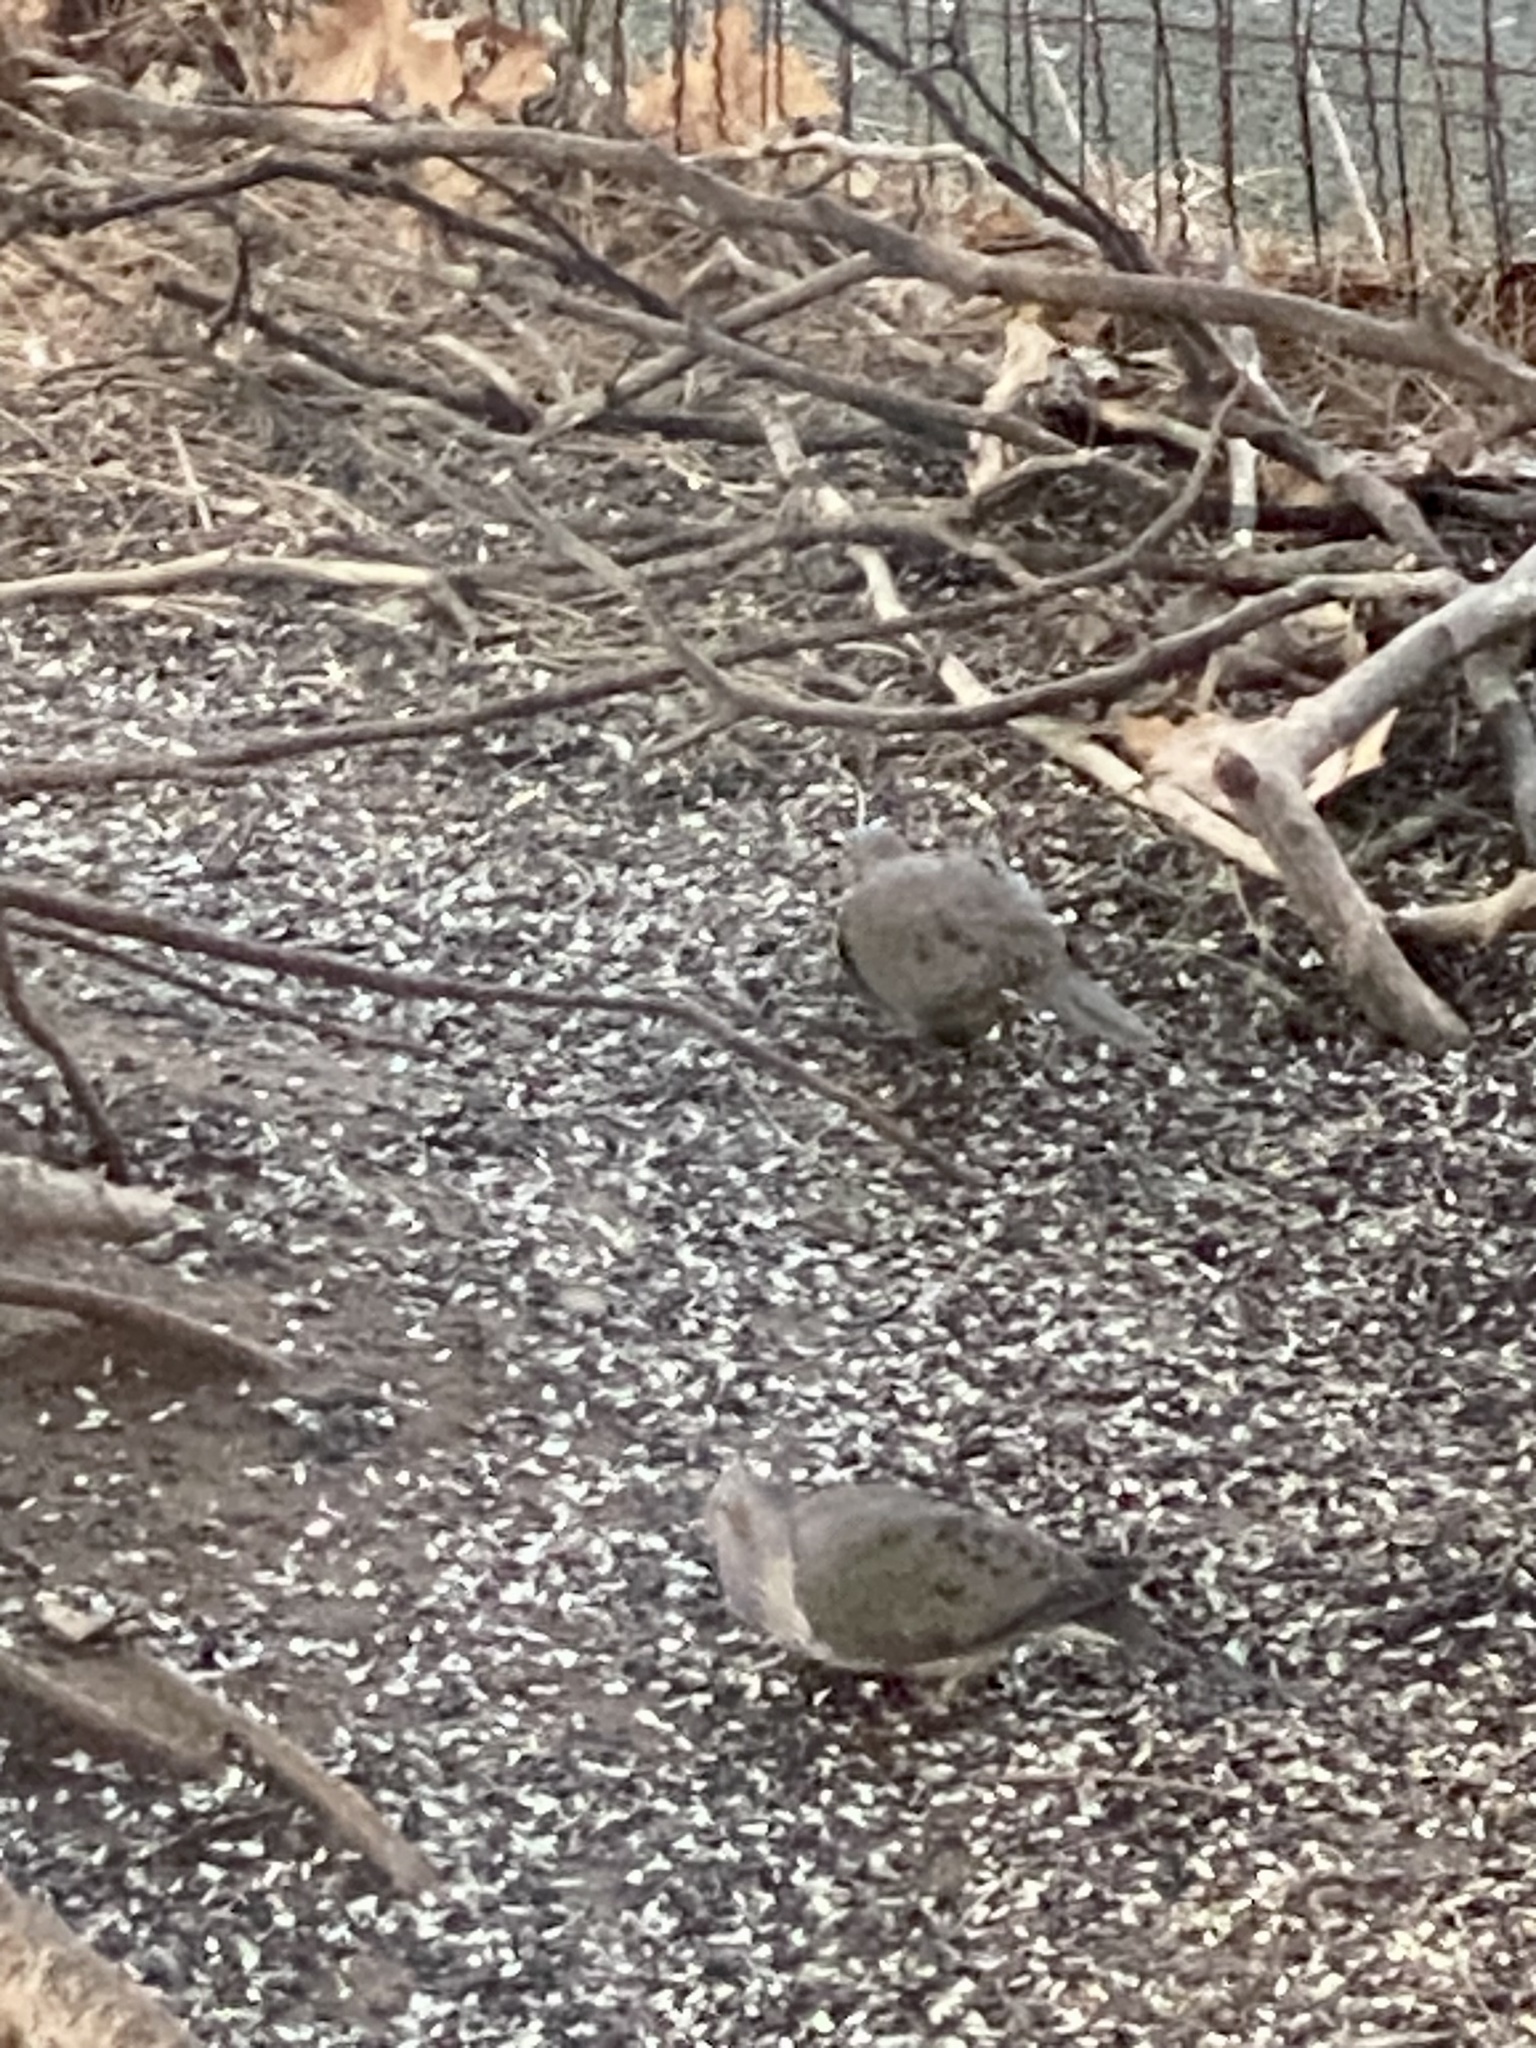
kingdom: Animalia
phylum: Chordata
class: Aves
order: Columbiformes
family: Columbidae
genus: Zenaida
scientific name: Zenaida macroura
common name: Mourning dove
